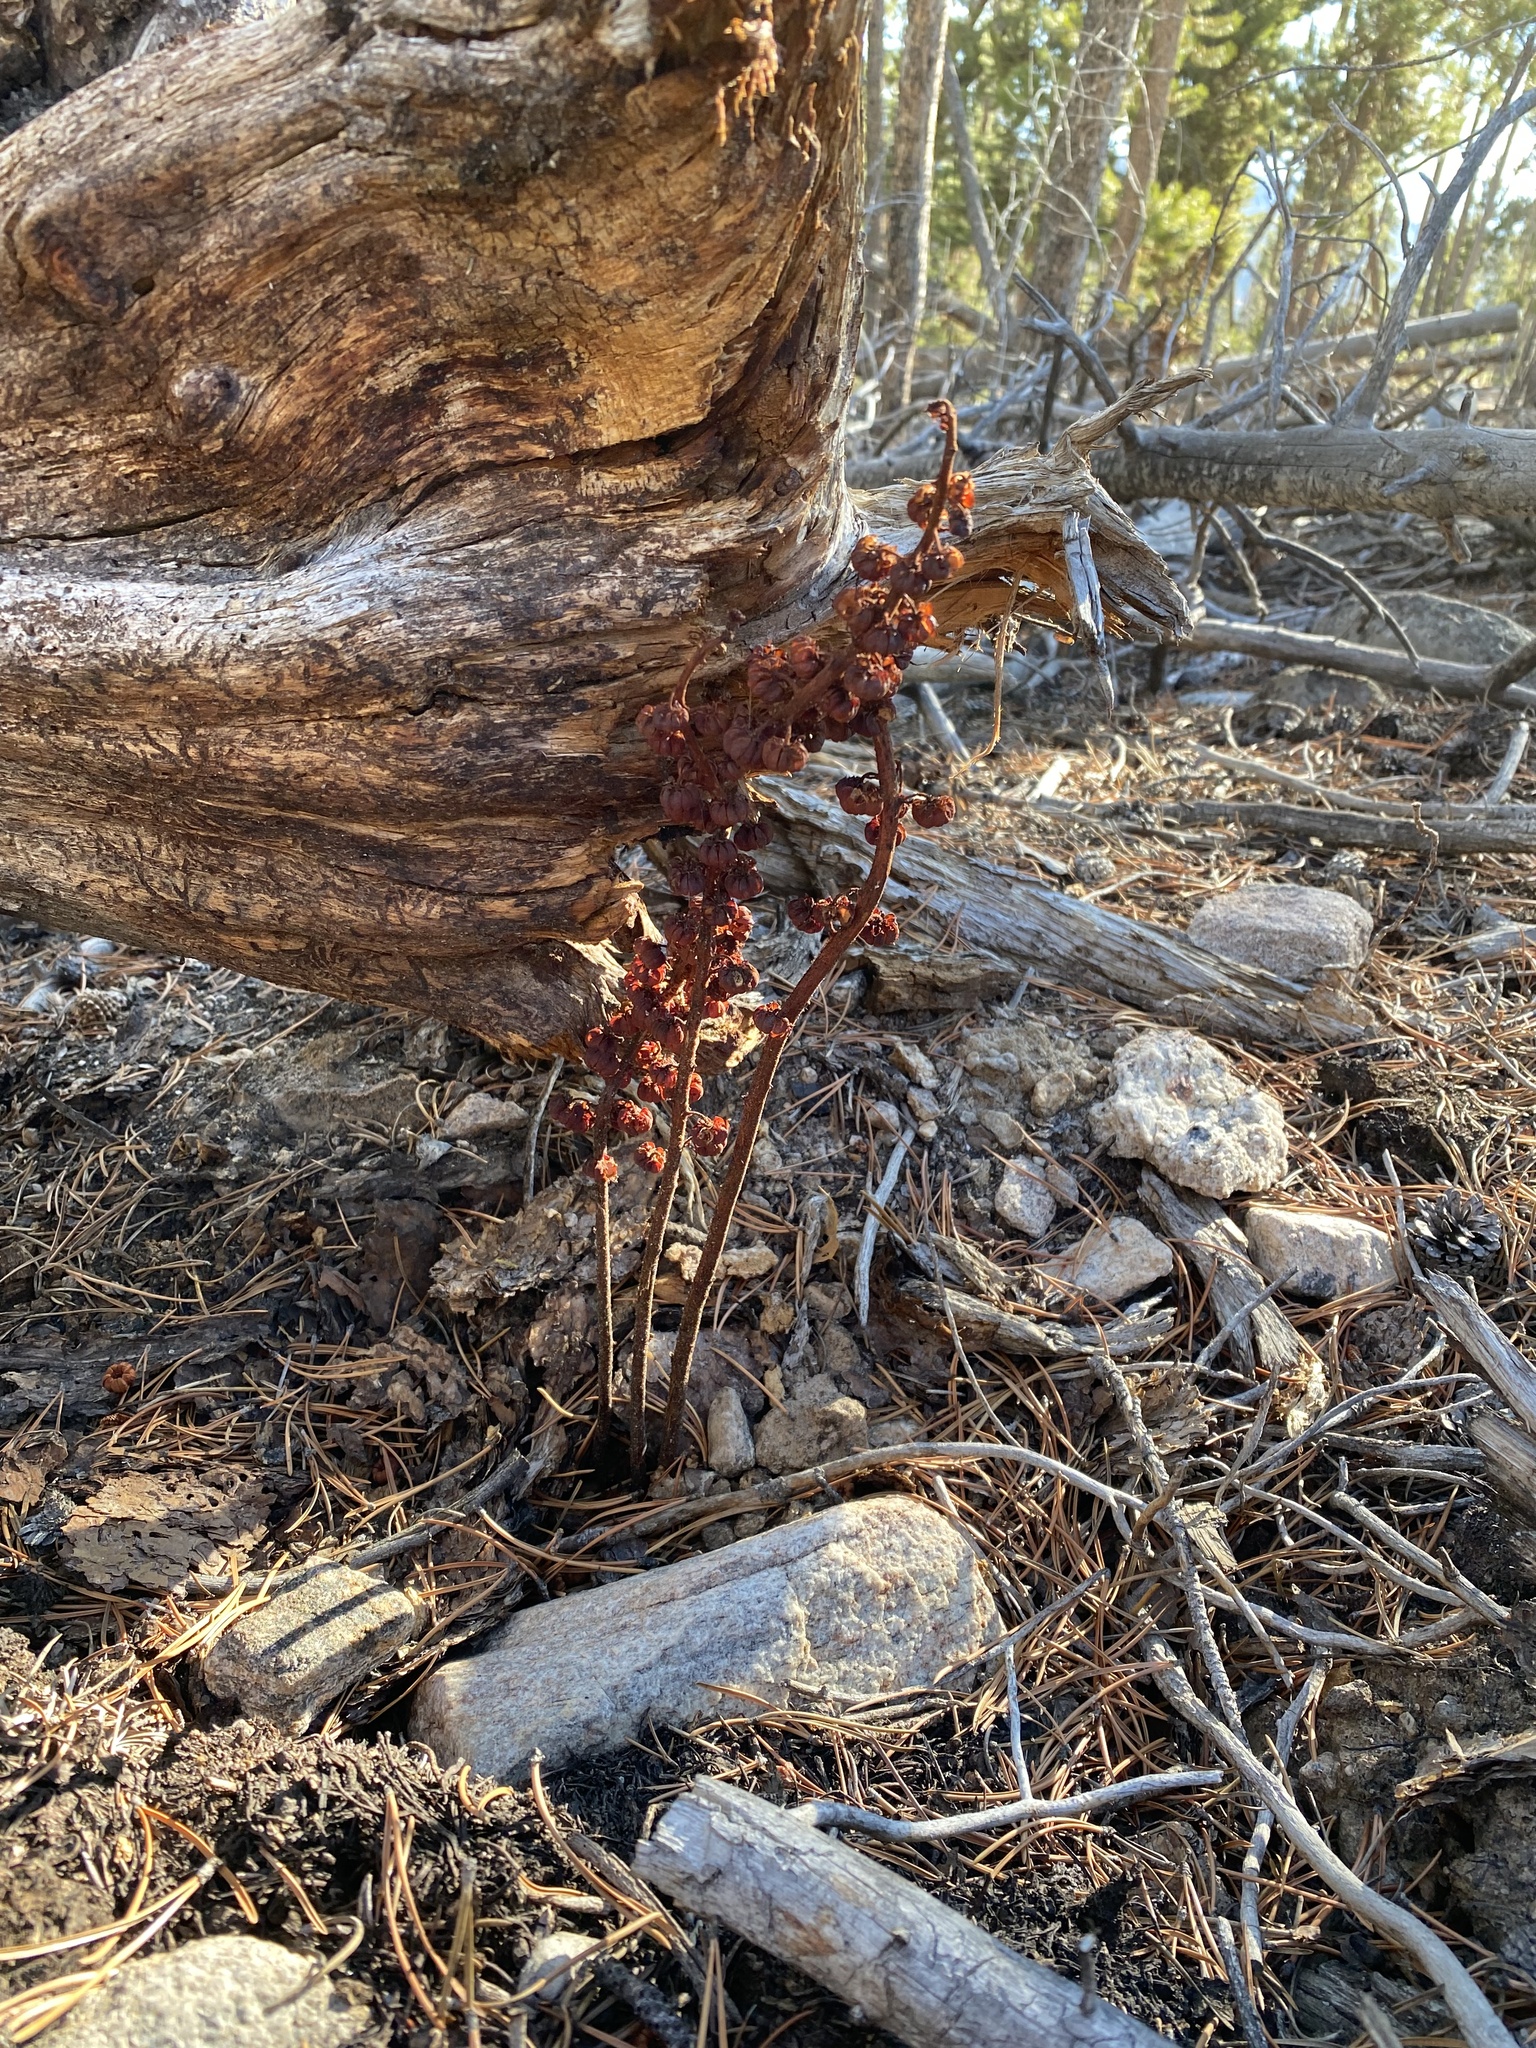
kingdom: Plantae
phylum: Tracheophyta
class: Magnoliopsida
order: Ericales
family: Ericaceae
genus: Pterospora
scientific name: Pterospora andromedea
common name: Giant bird's-nest
